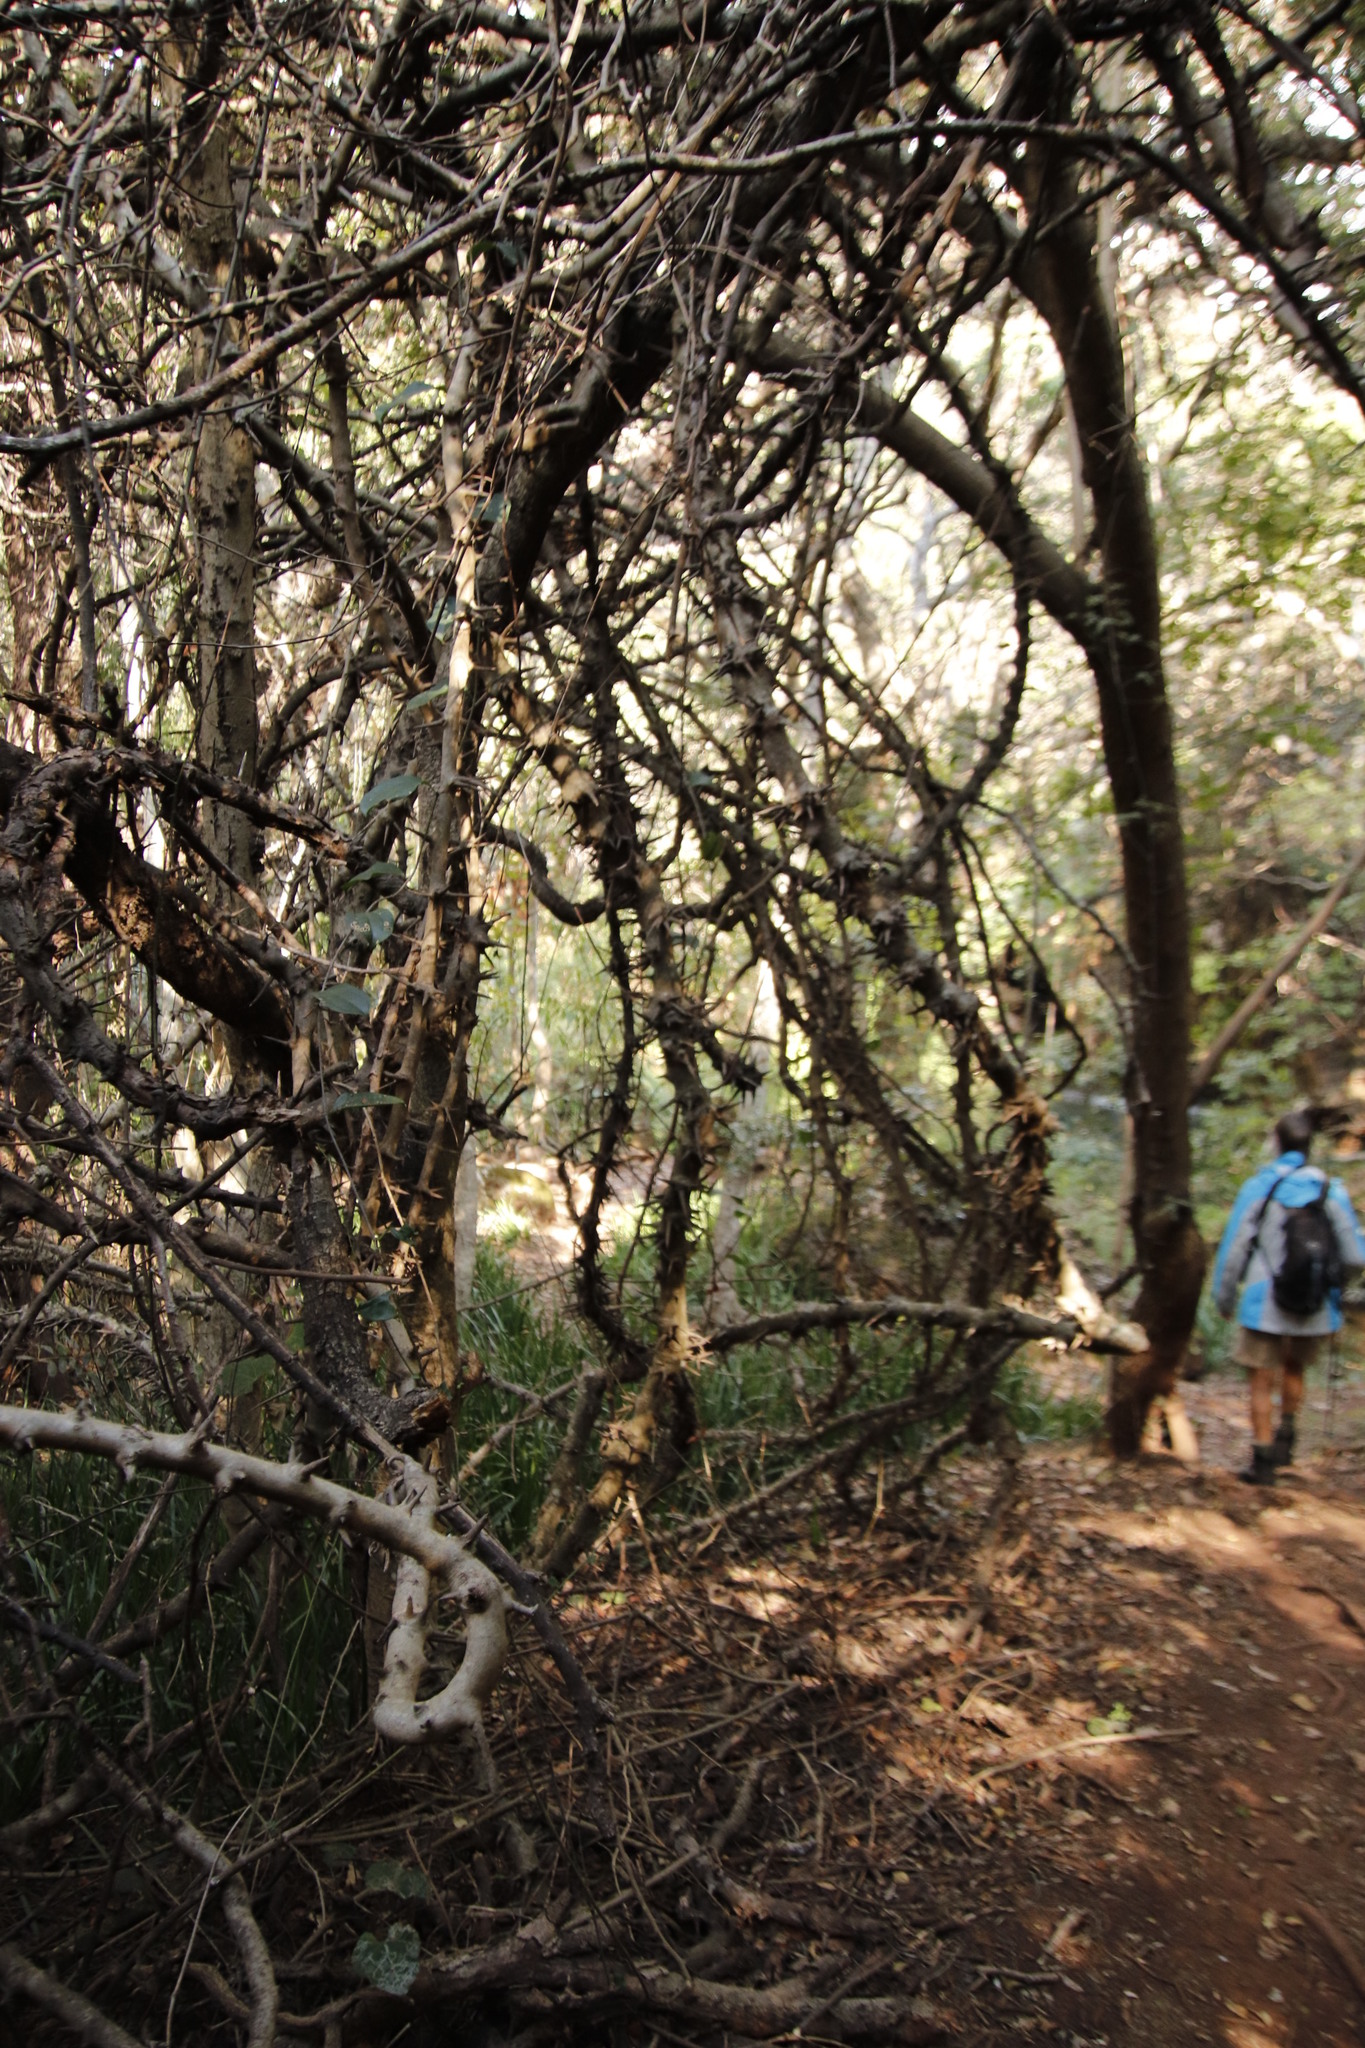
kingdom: Plantae
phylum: Tracheophyta
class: Magnoliopsida
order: Fabales
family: Fabaceae
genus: Dalbergia
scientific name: Dalbergia armata
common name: Hluhluwe climber
